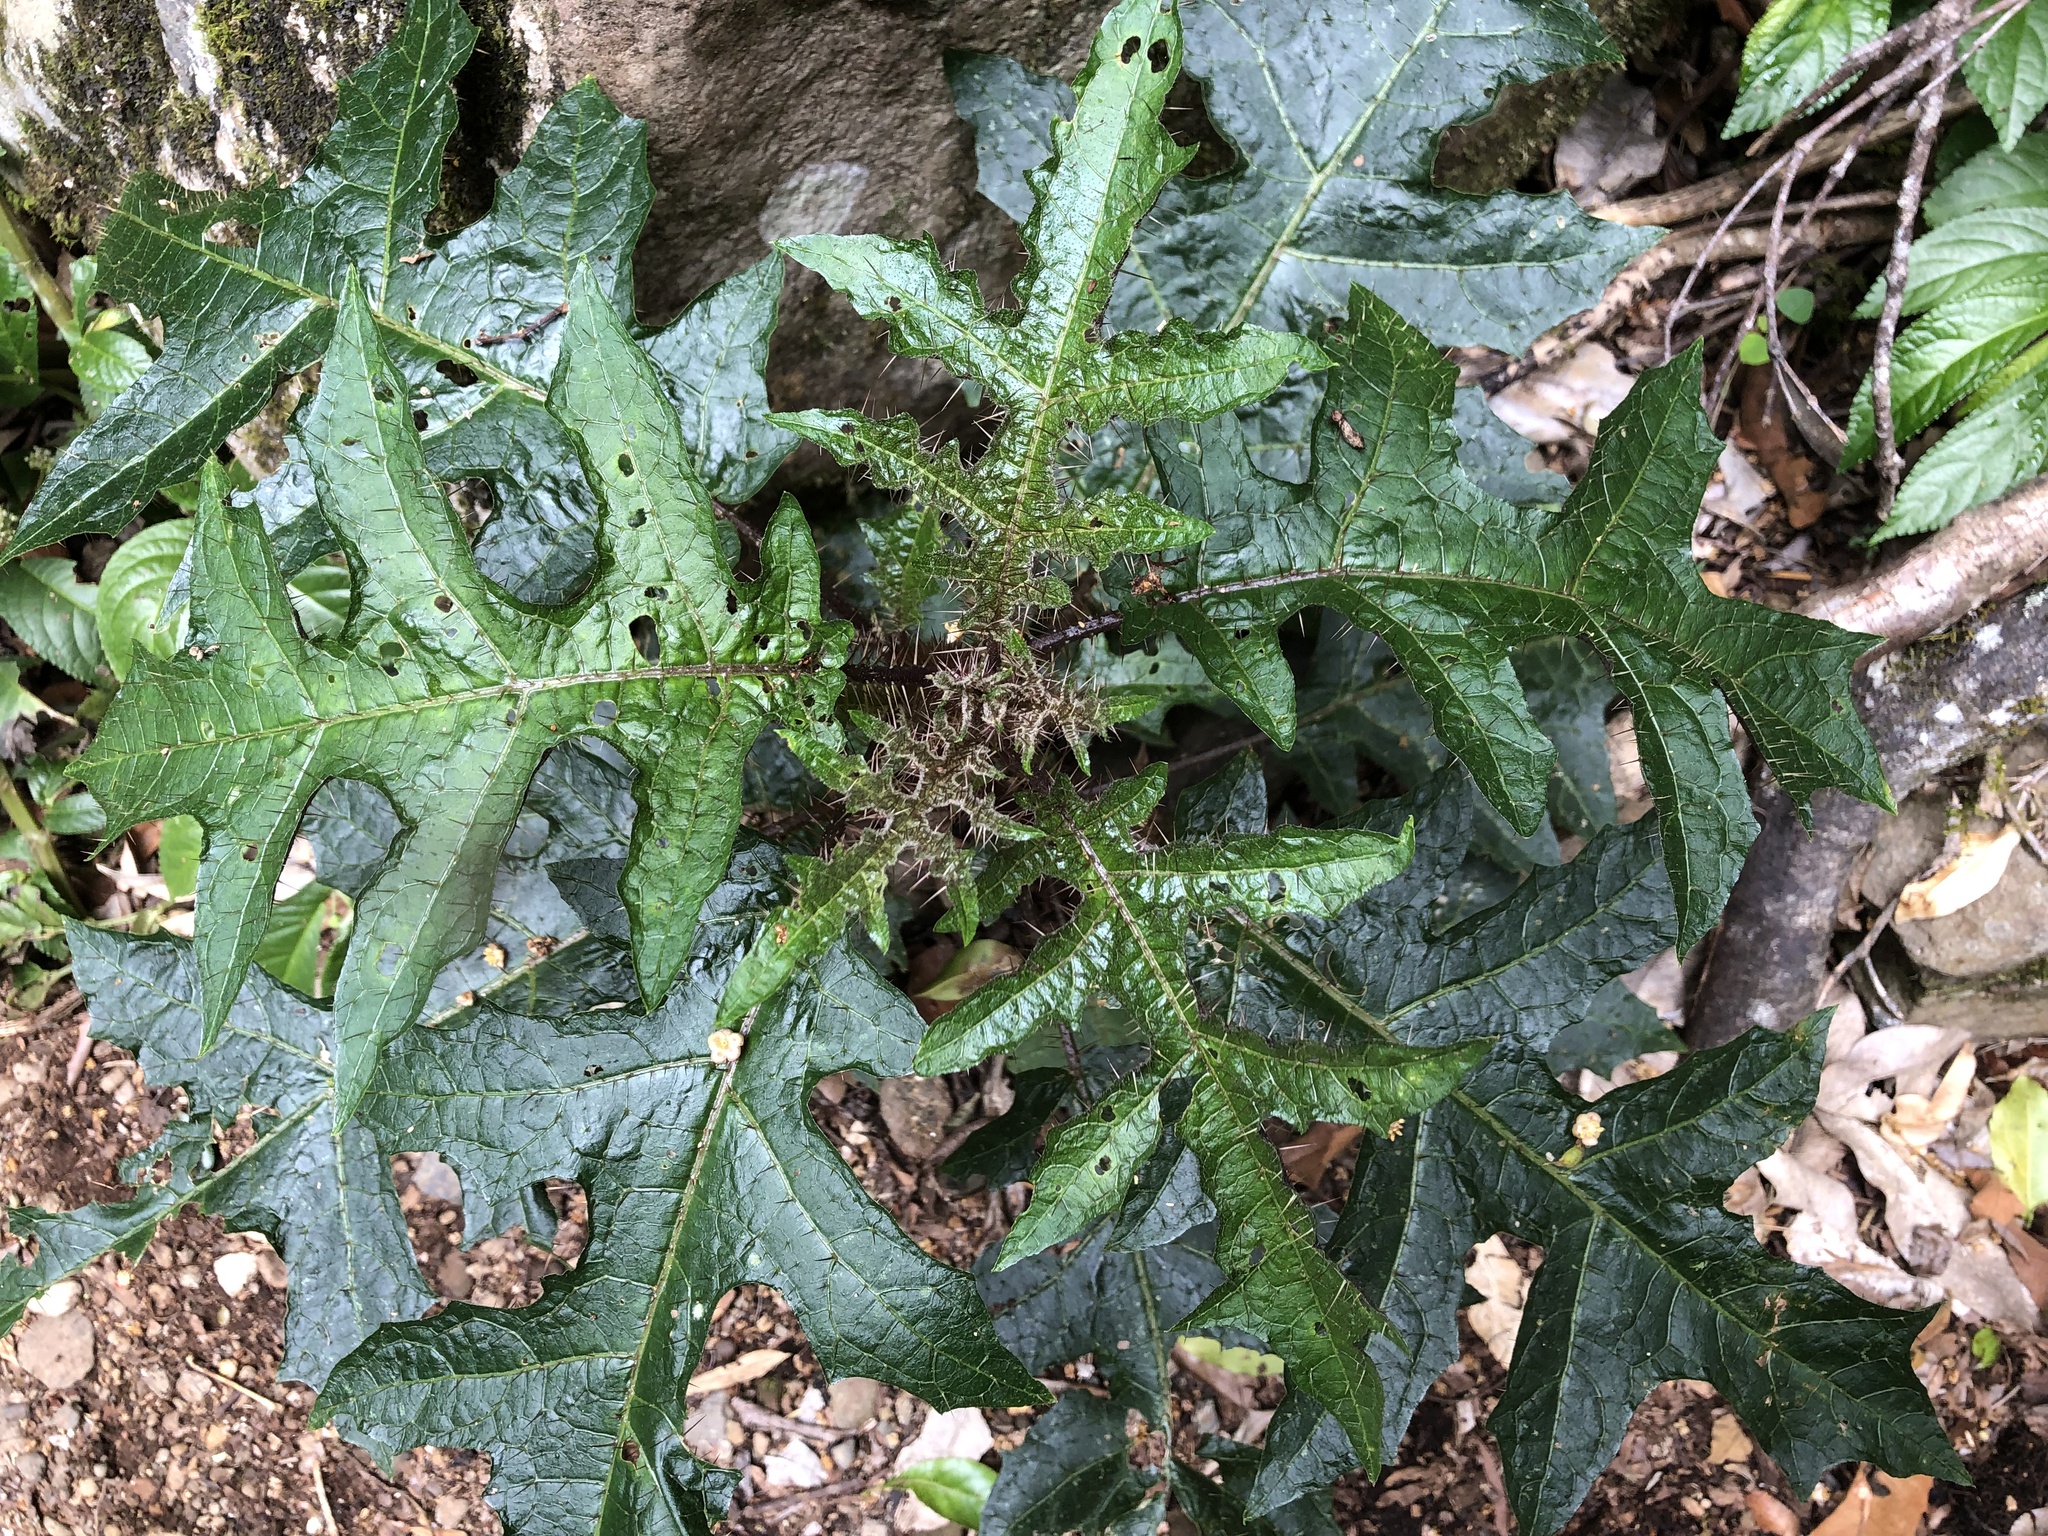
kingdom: Plantae
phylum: Tracheophyta
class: Magnoliopsida
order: Solanales
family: Solanaceae
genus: Solanum
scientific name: Solanum inaequilaterum
